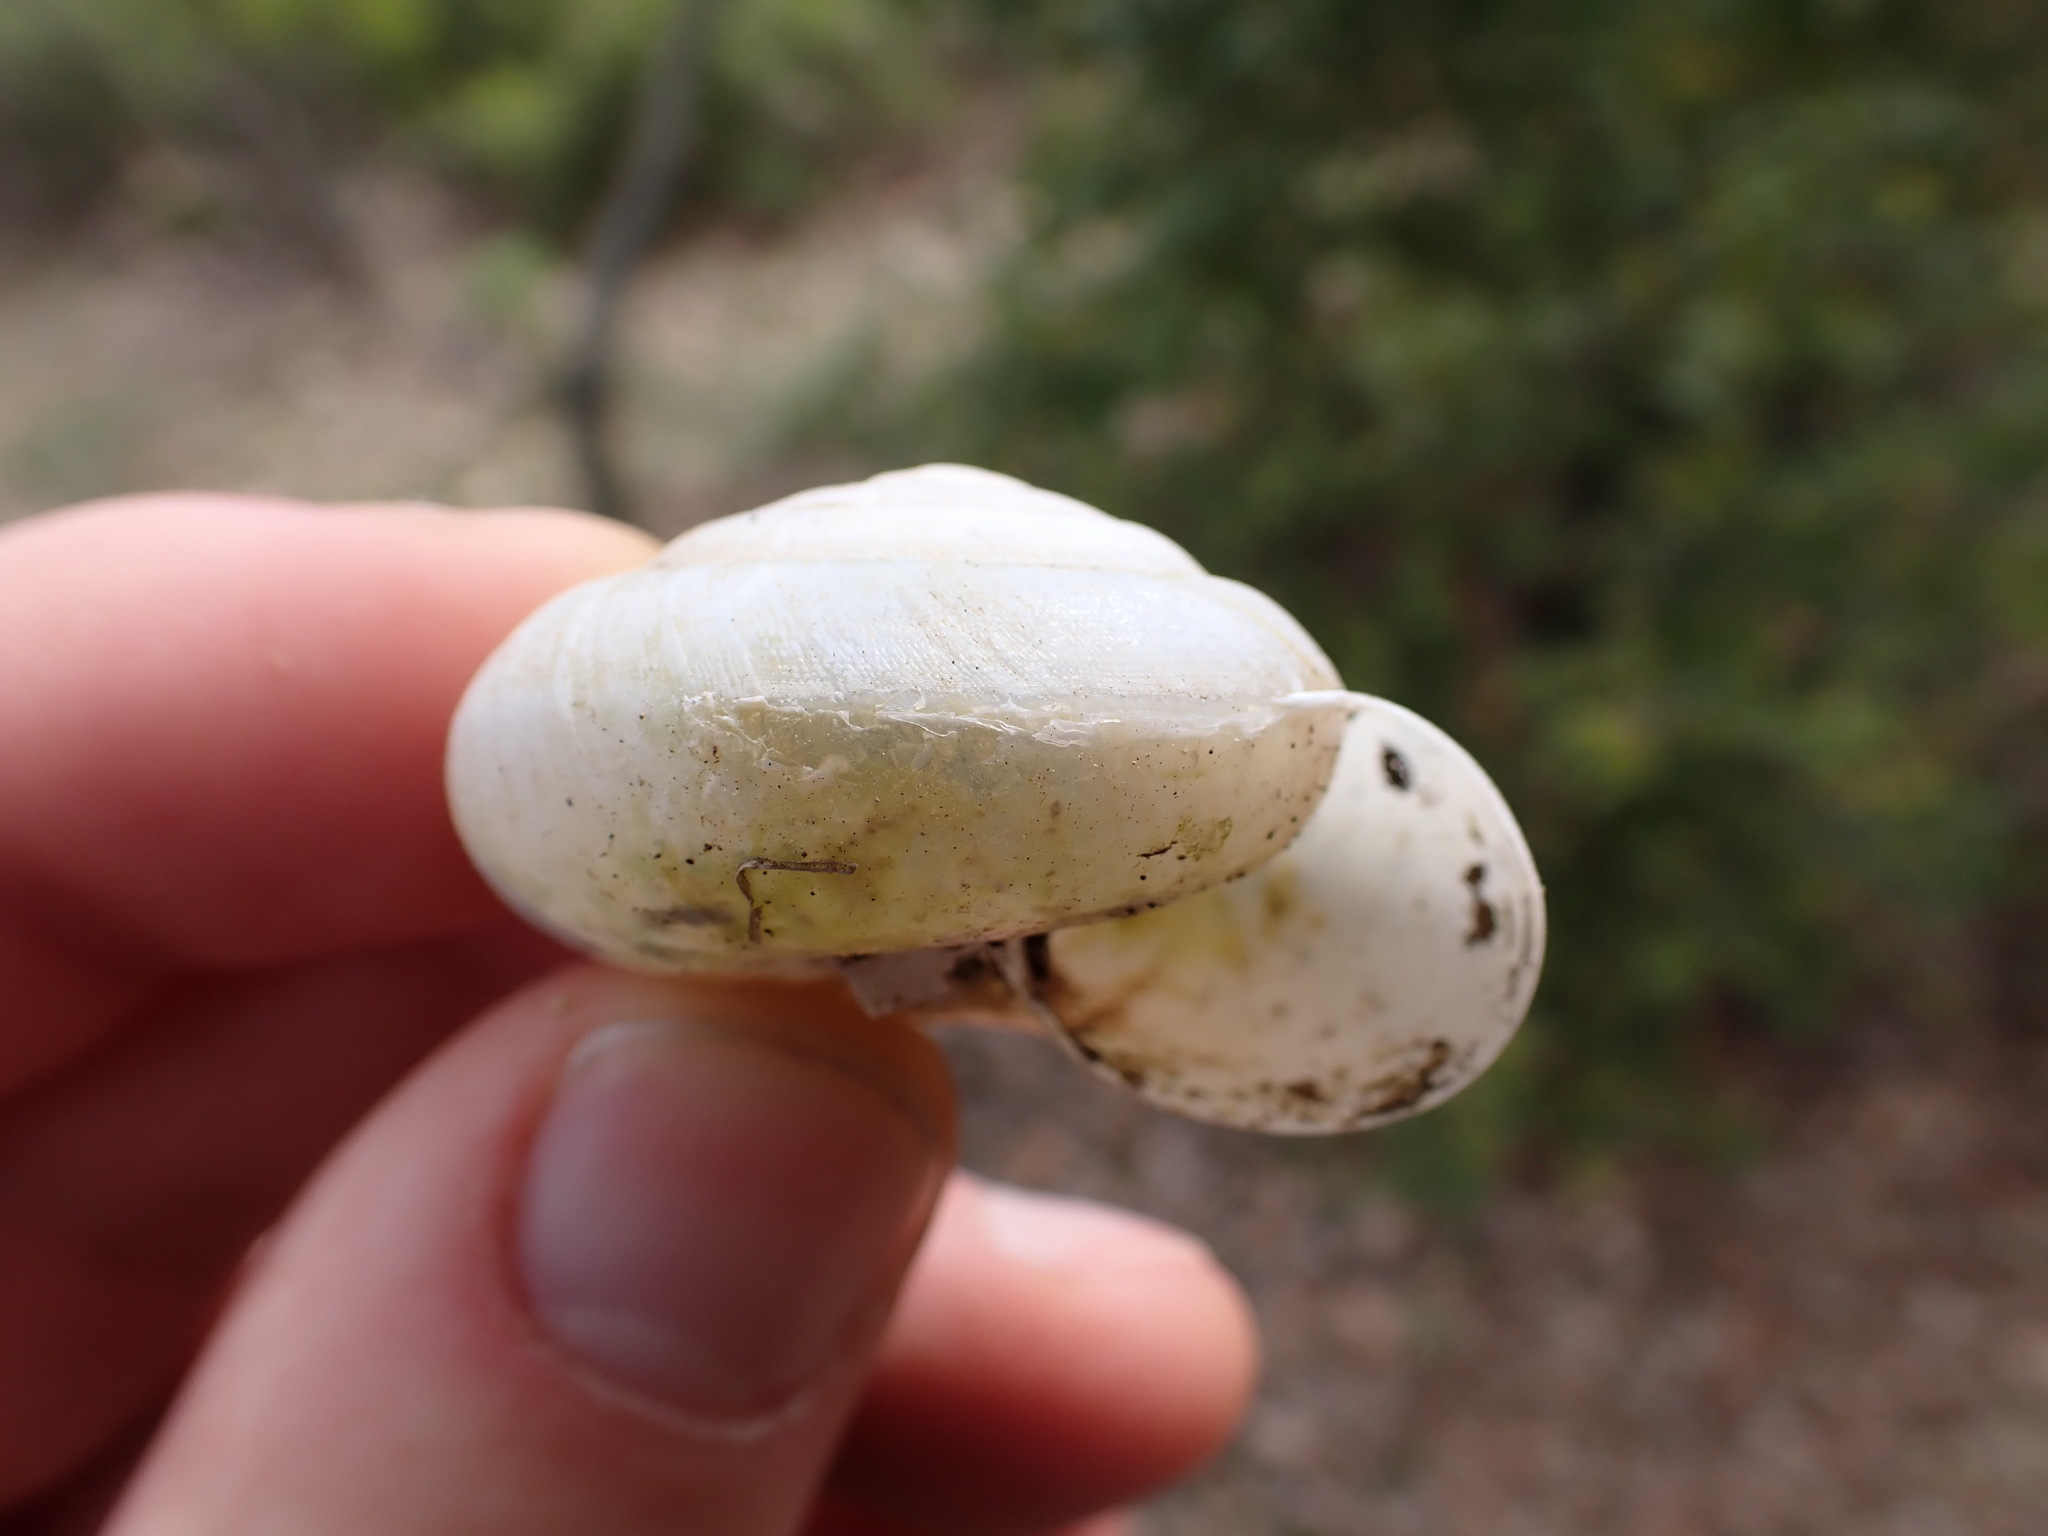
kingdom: Animalia
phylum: Mollusca
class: Gastropoda
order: Stylommatophora
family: Zonitidae
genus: Zonites
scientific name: Zonites algirus
